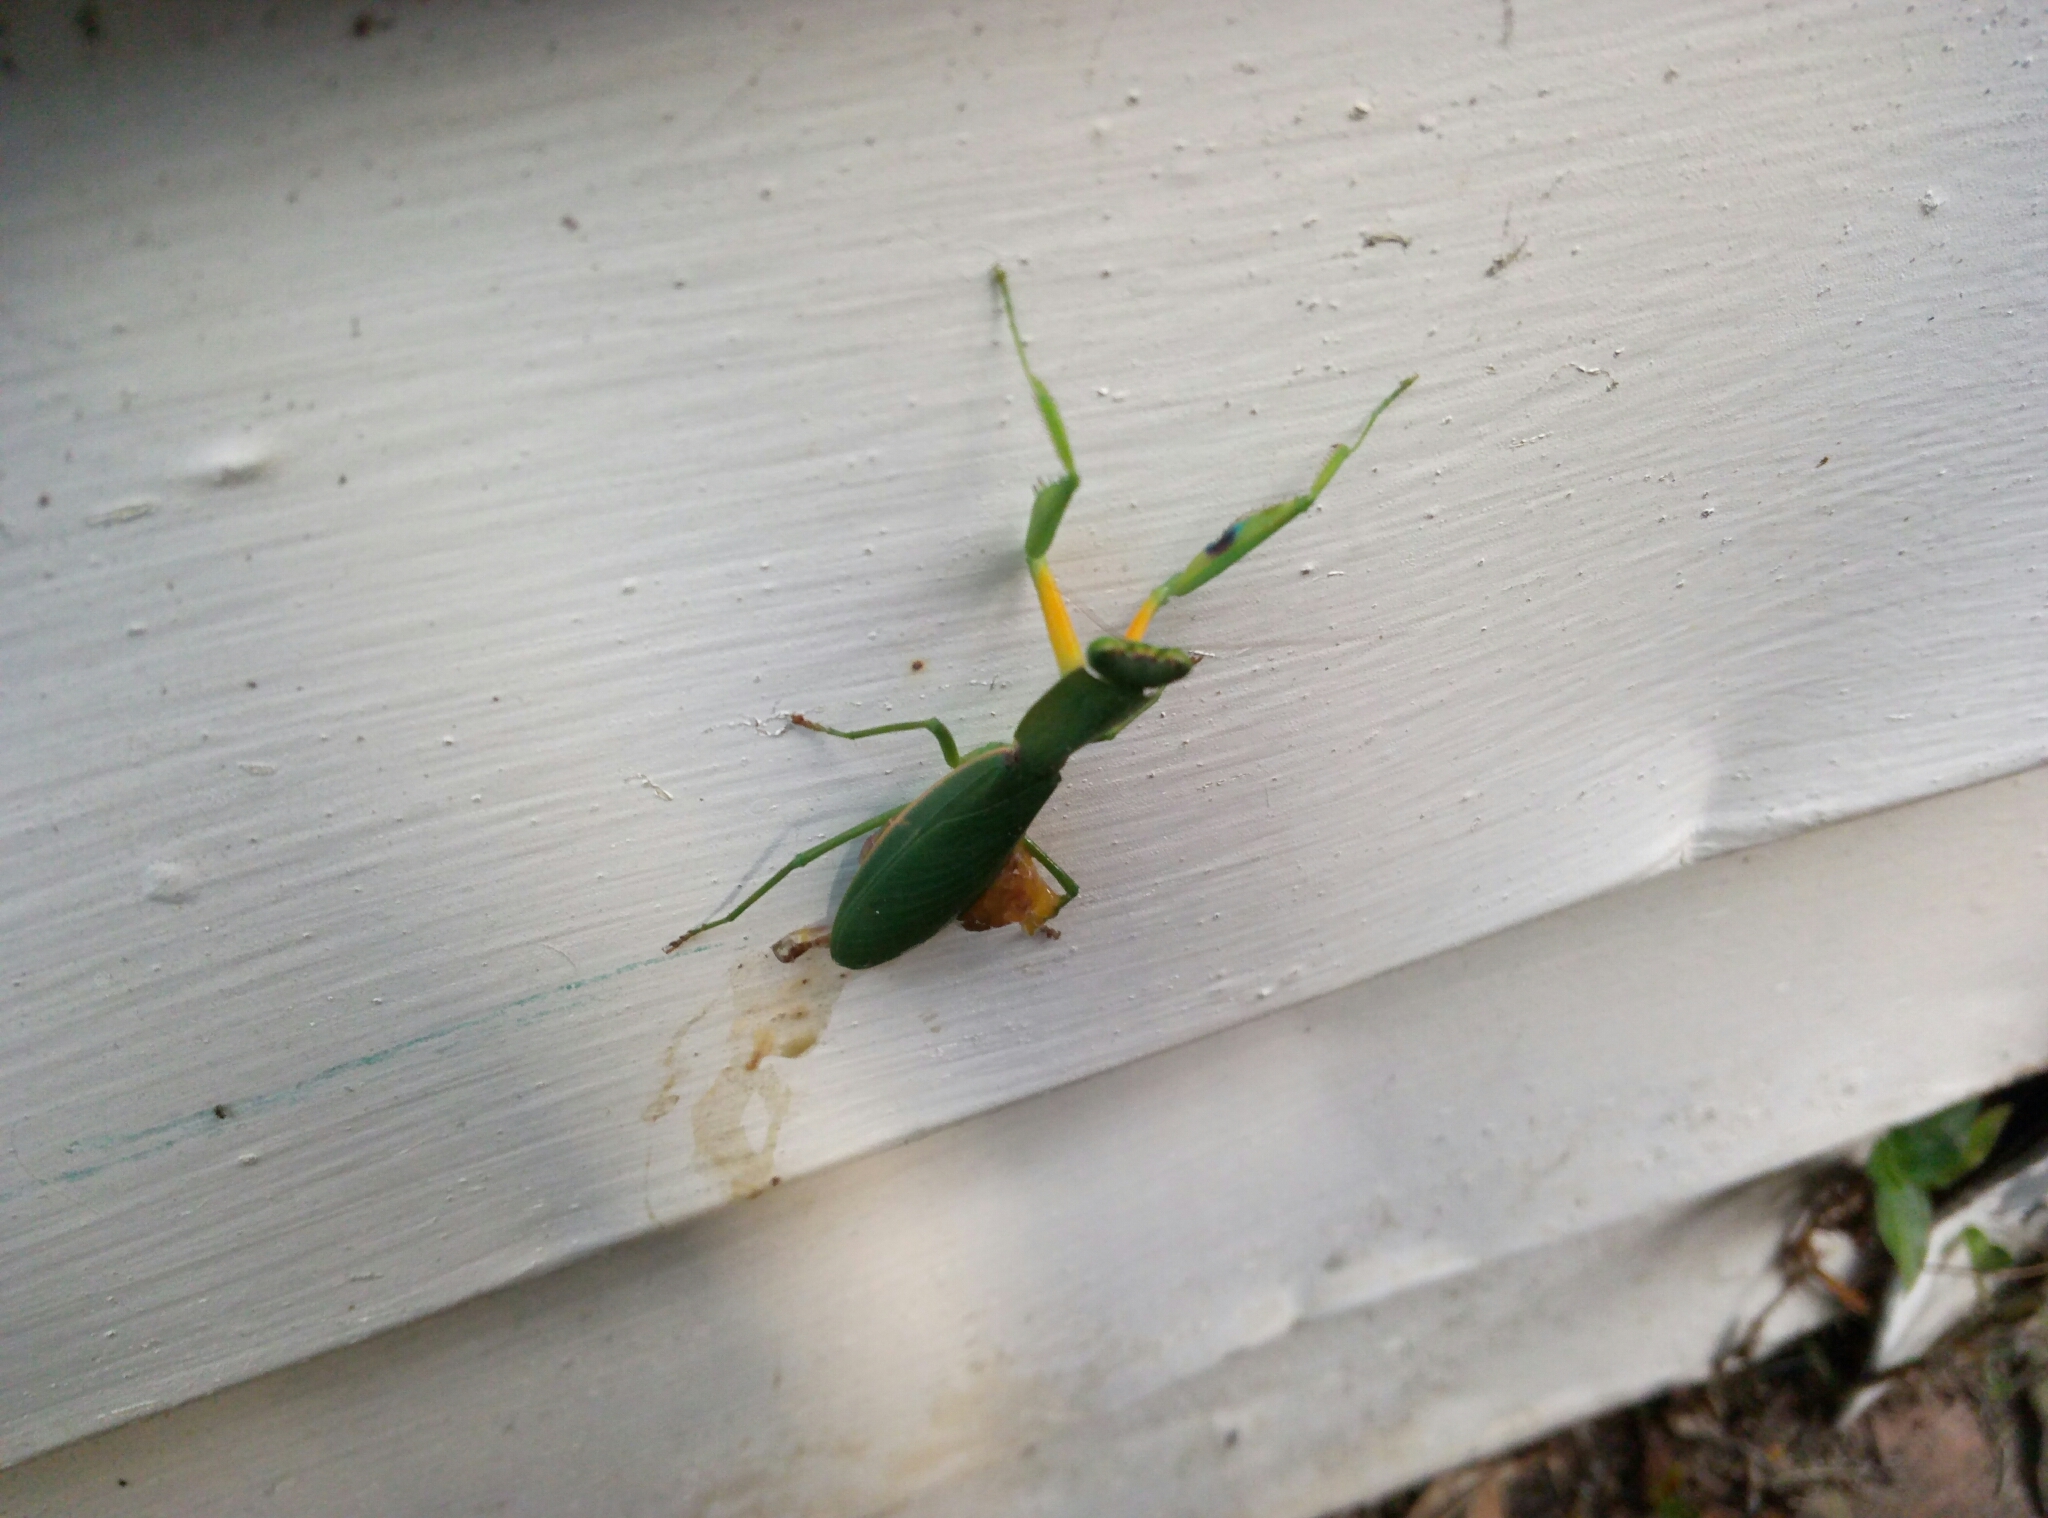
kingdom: Animalia
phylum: Arthropoda
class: Insecta
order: Mantodea
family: Mantidae
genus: Orthodera
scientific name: Orthodera novaezealandiae
